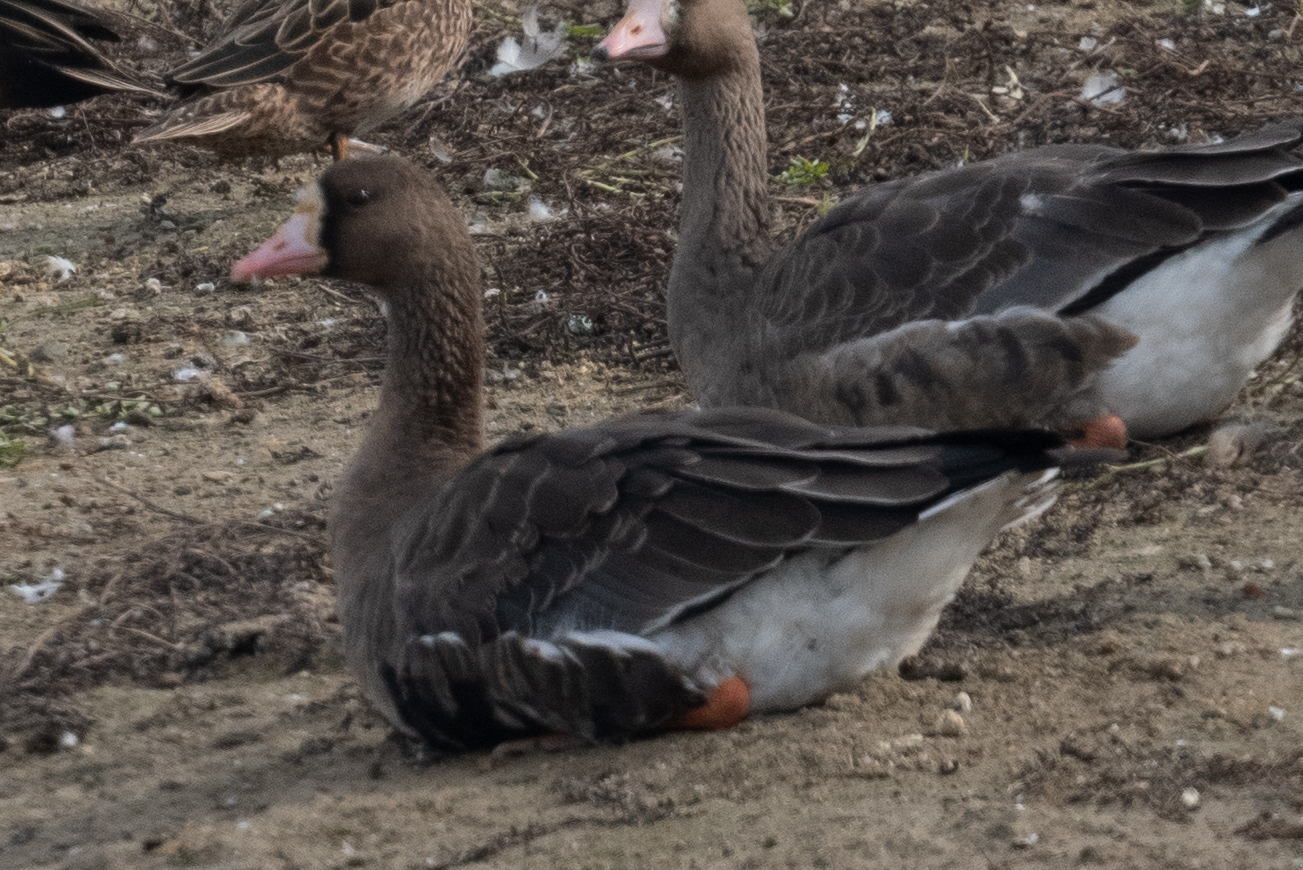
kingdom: Animalia
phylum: Chordata
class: Aves
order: Anseriformes
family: Anatidae
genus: Anser
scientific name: Anser albifrons
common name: Greater white-fronted goose
